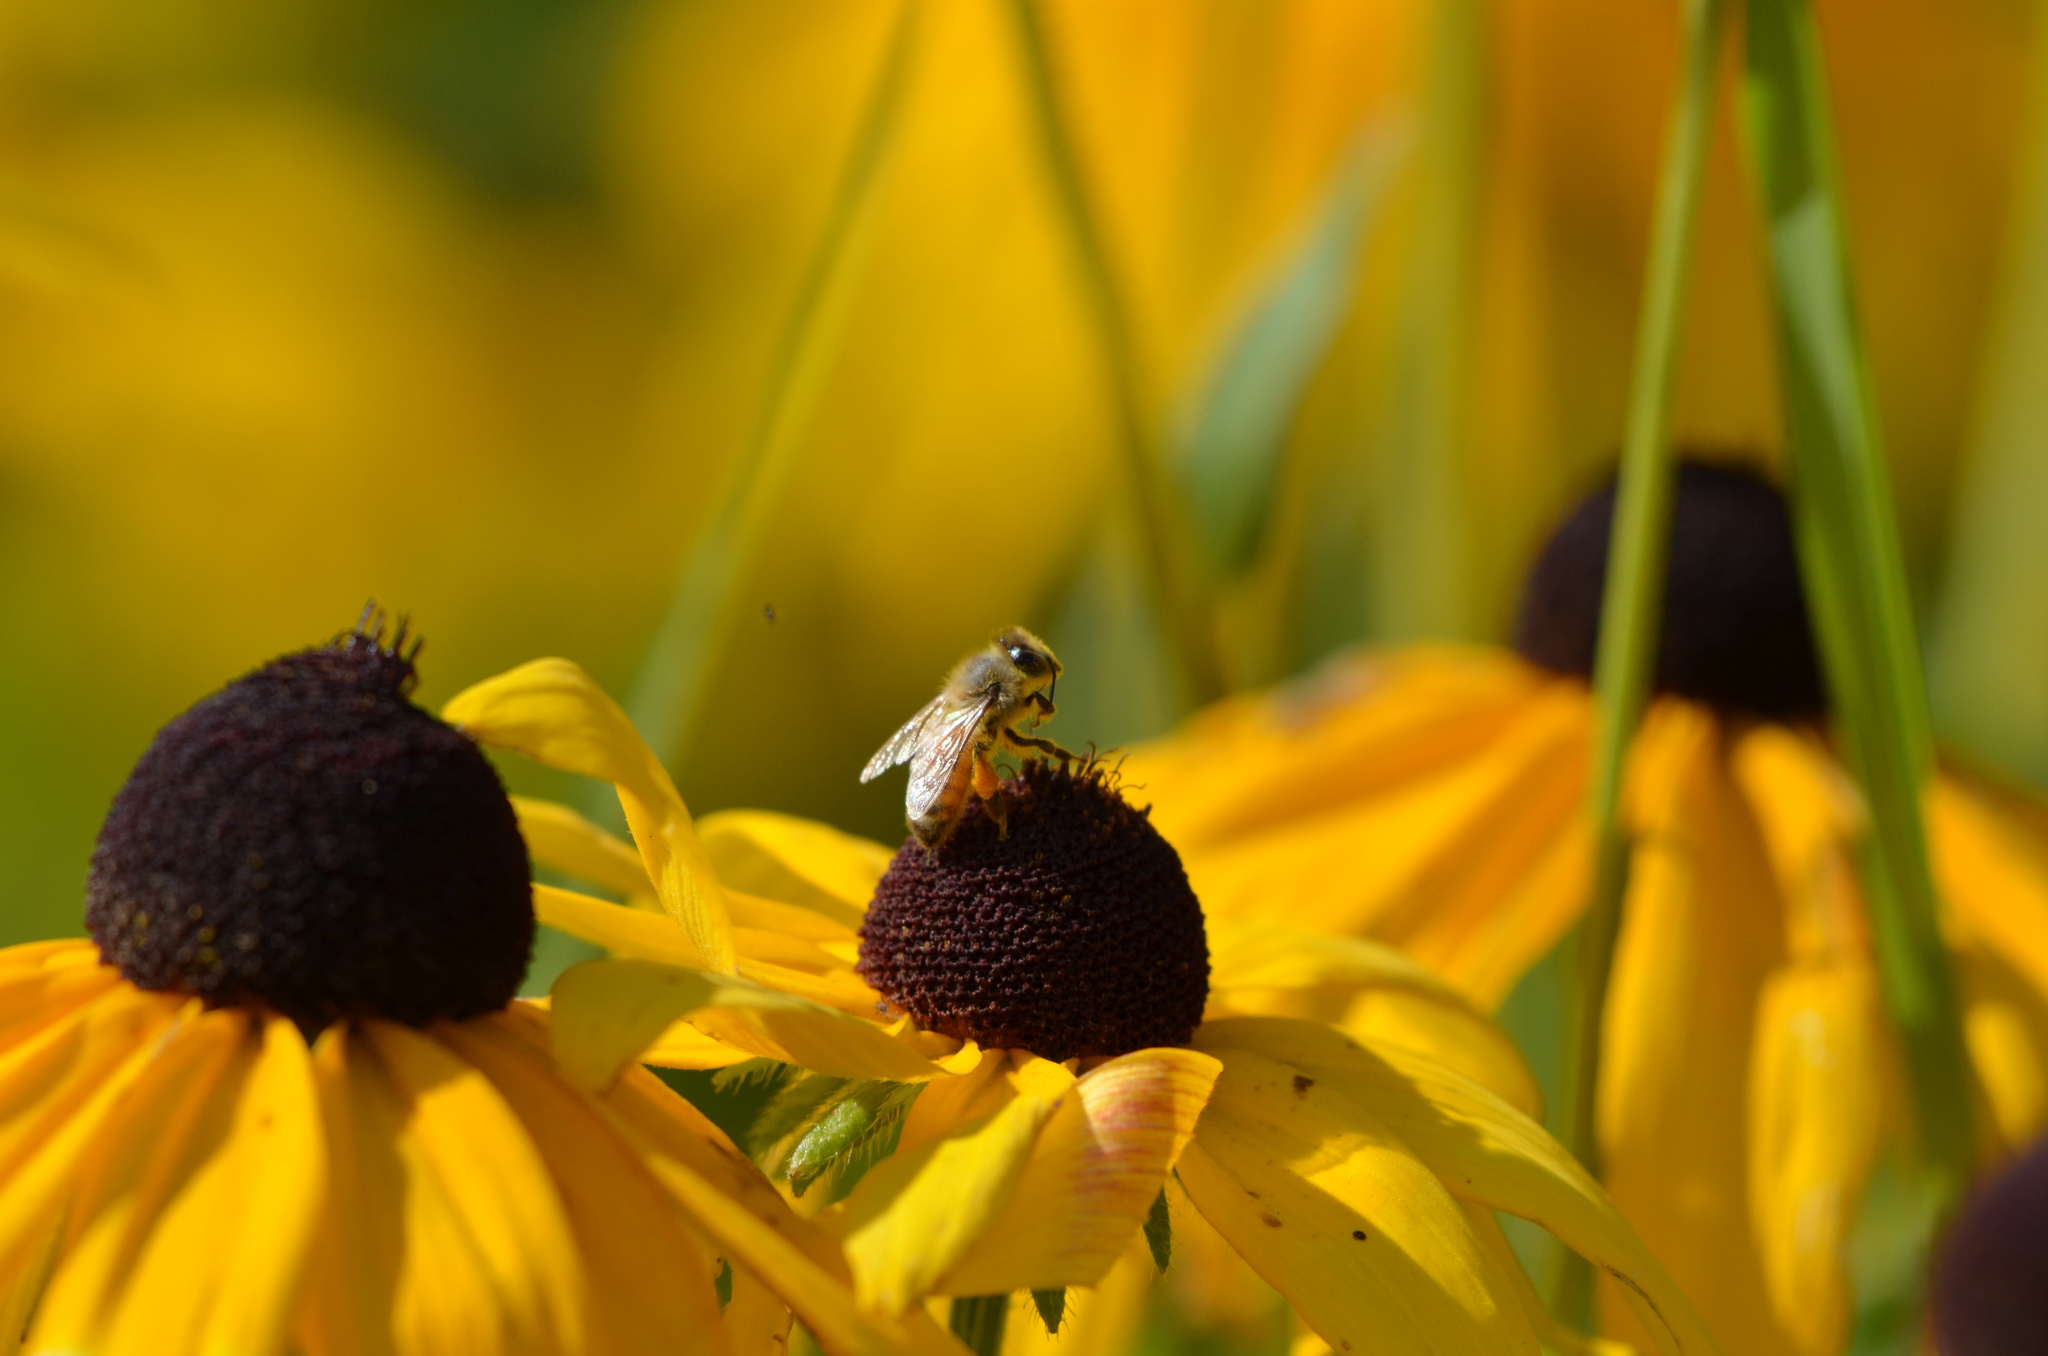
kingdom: Animalia
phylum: Arthropoda
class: Insecta
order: Hymenoptera
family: Apidae
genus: Apis
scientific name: Apis mellifera
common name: Honey bee
